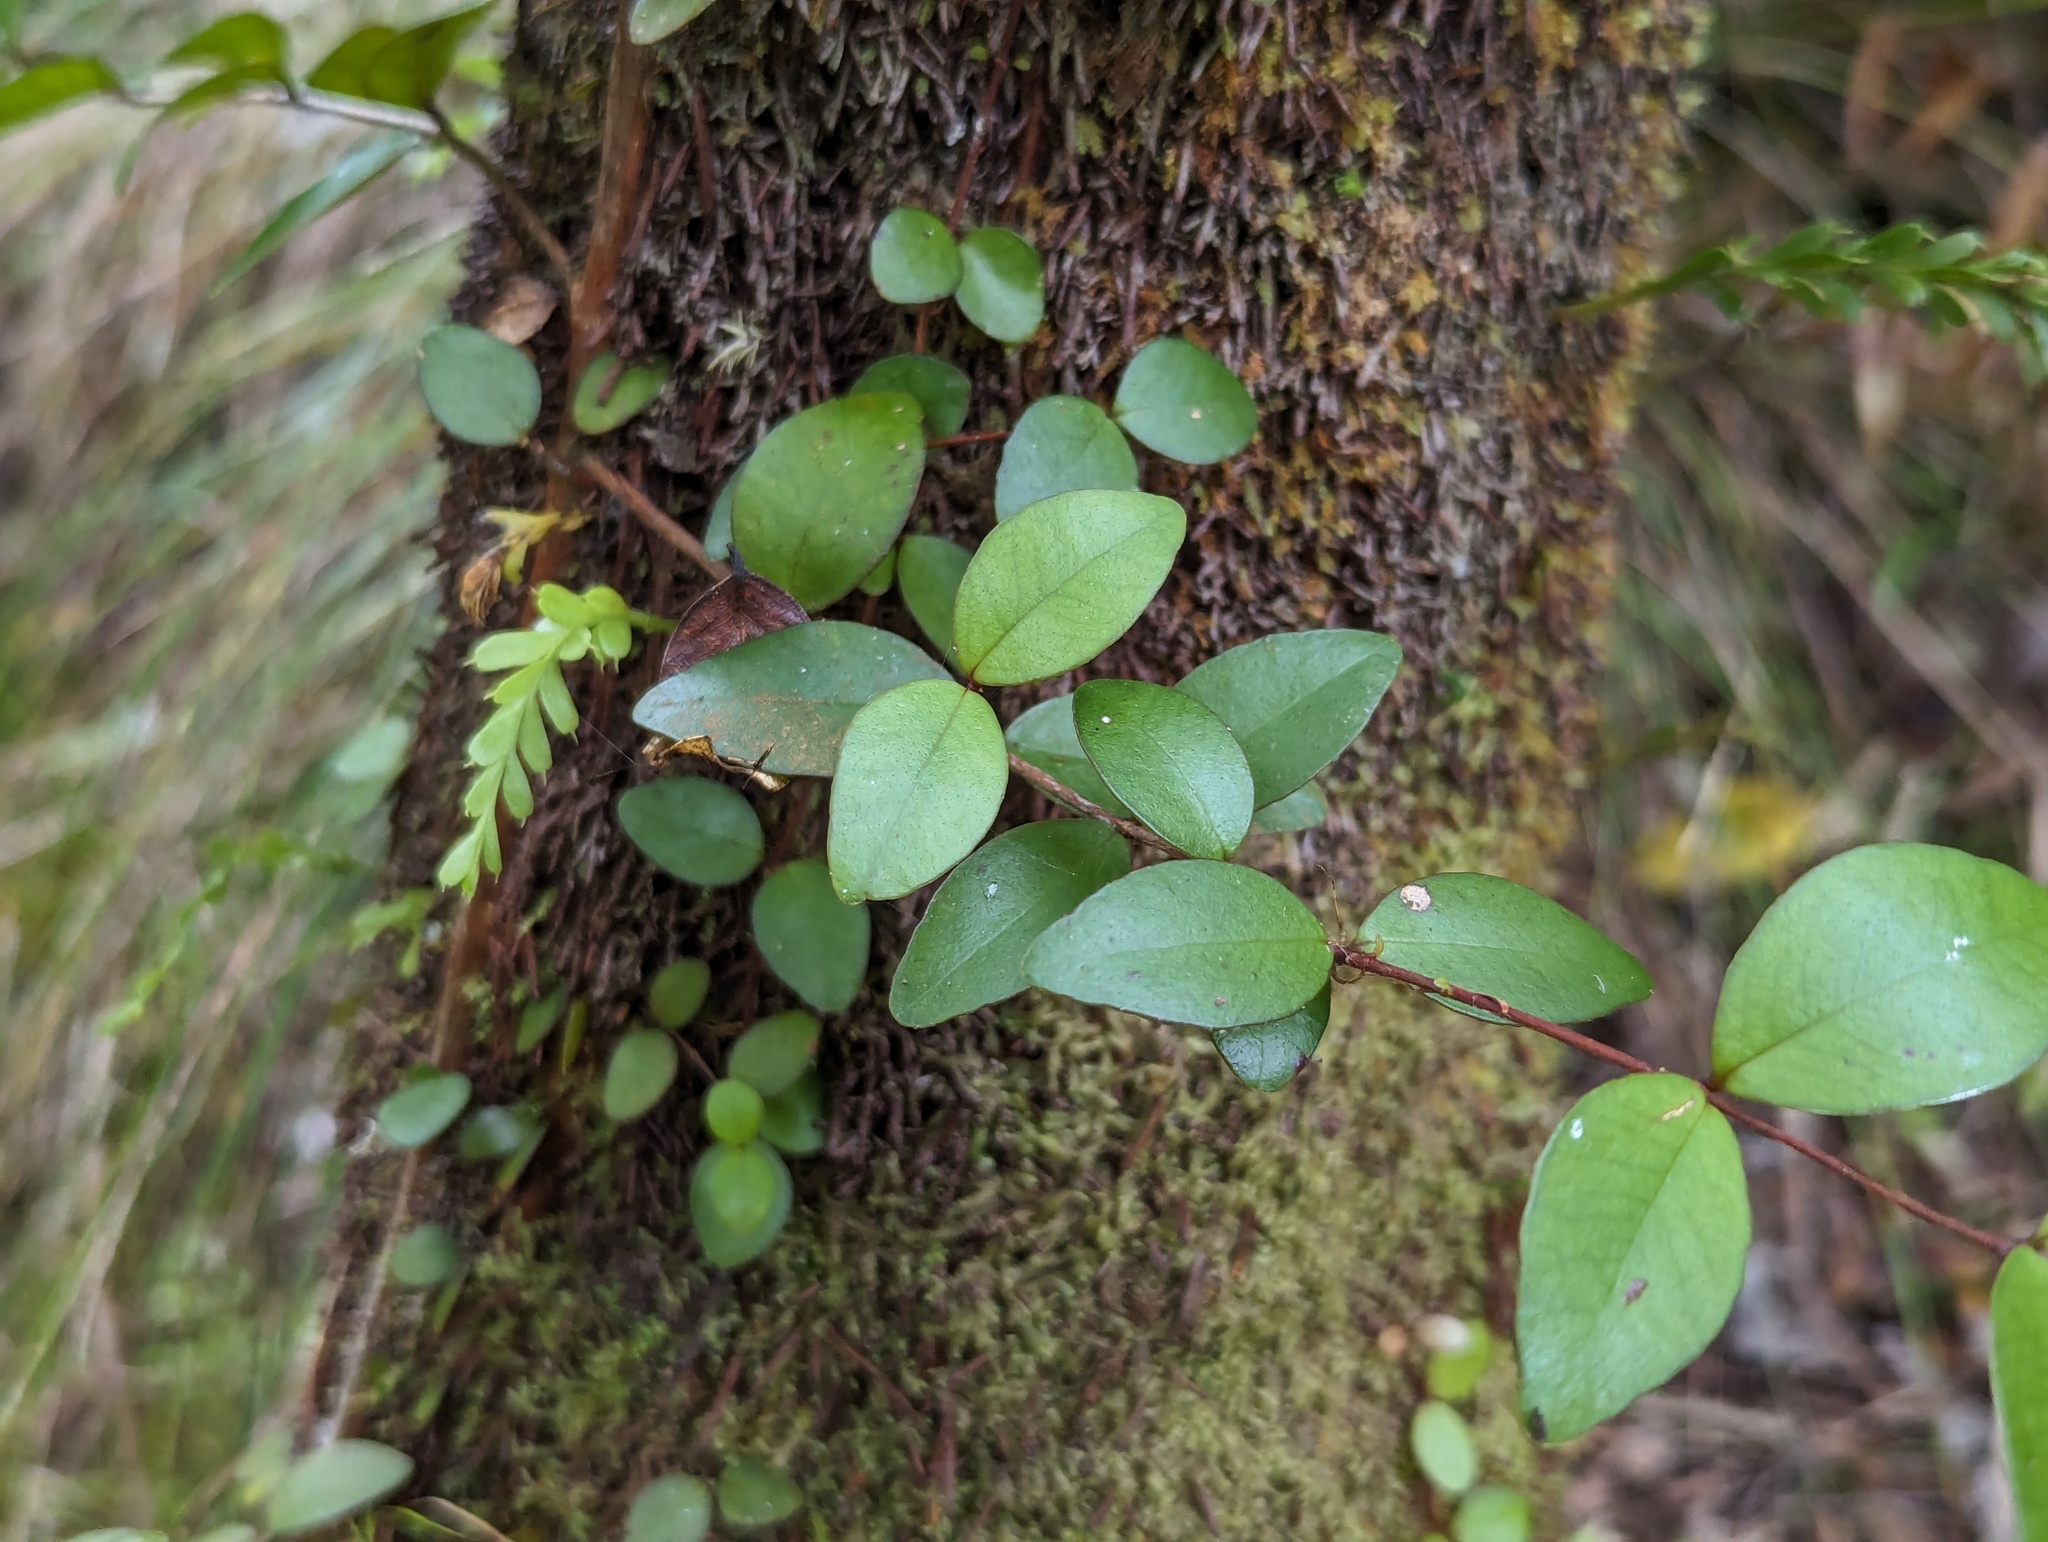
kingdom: Plantae
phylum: Tracheophyta
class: Magnoliopsida
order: Myrtales
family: Myrtaceae
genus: Metrosideros
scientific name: Metrosideros fulgens
